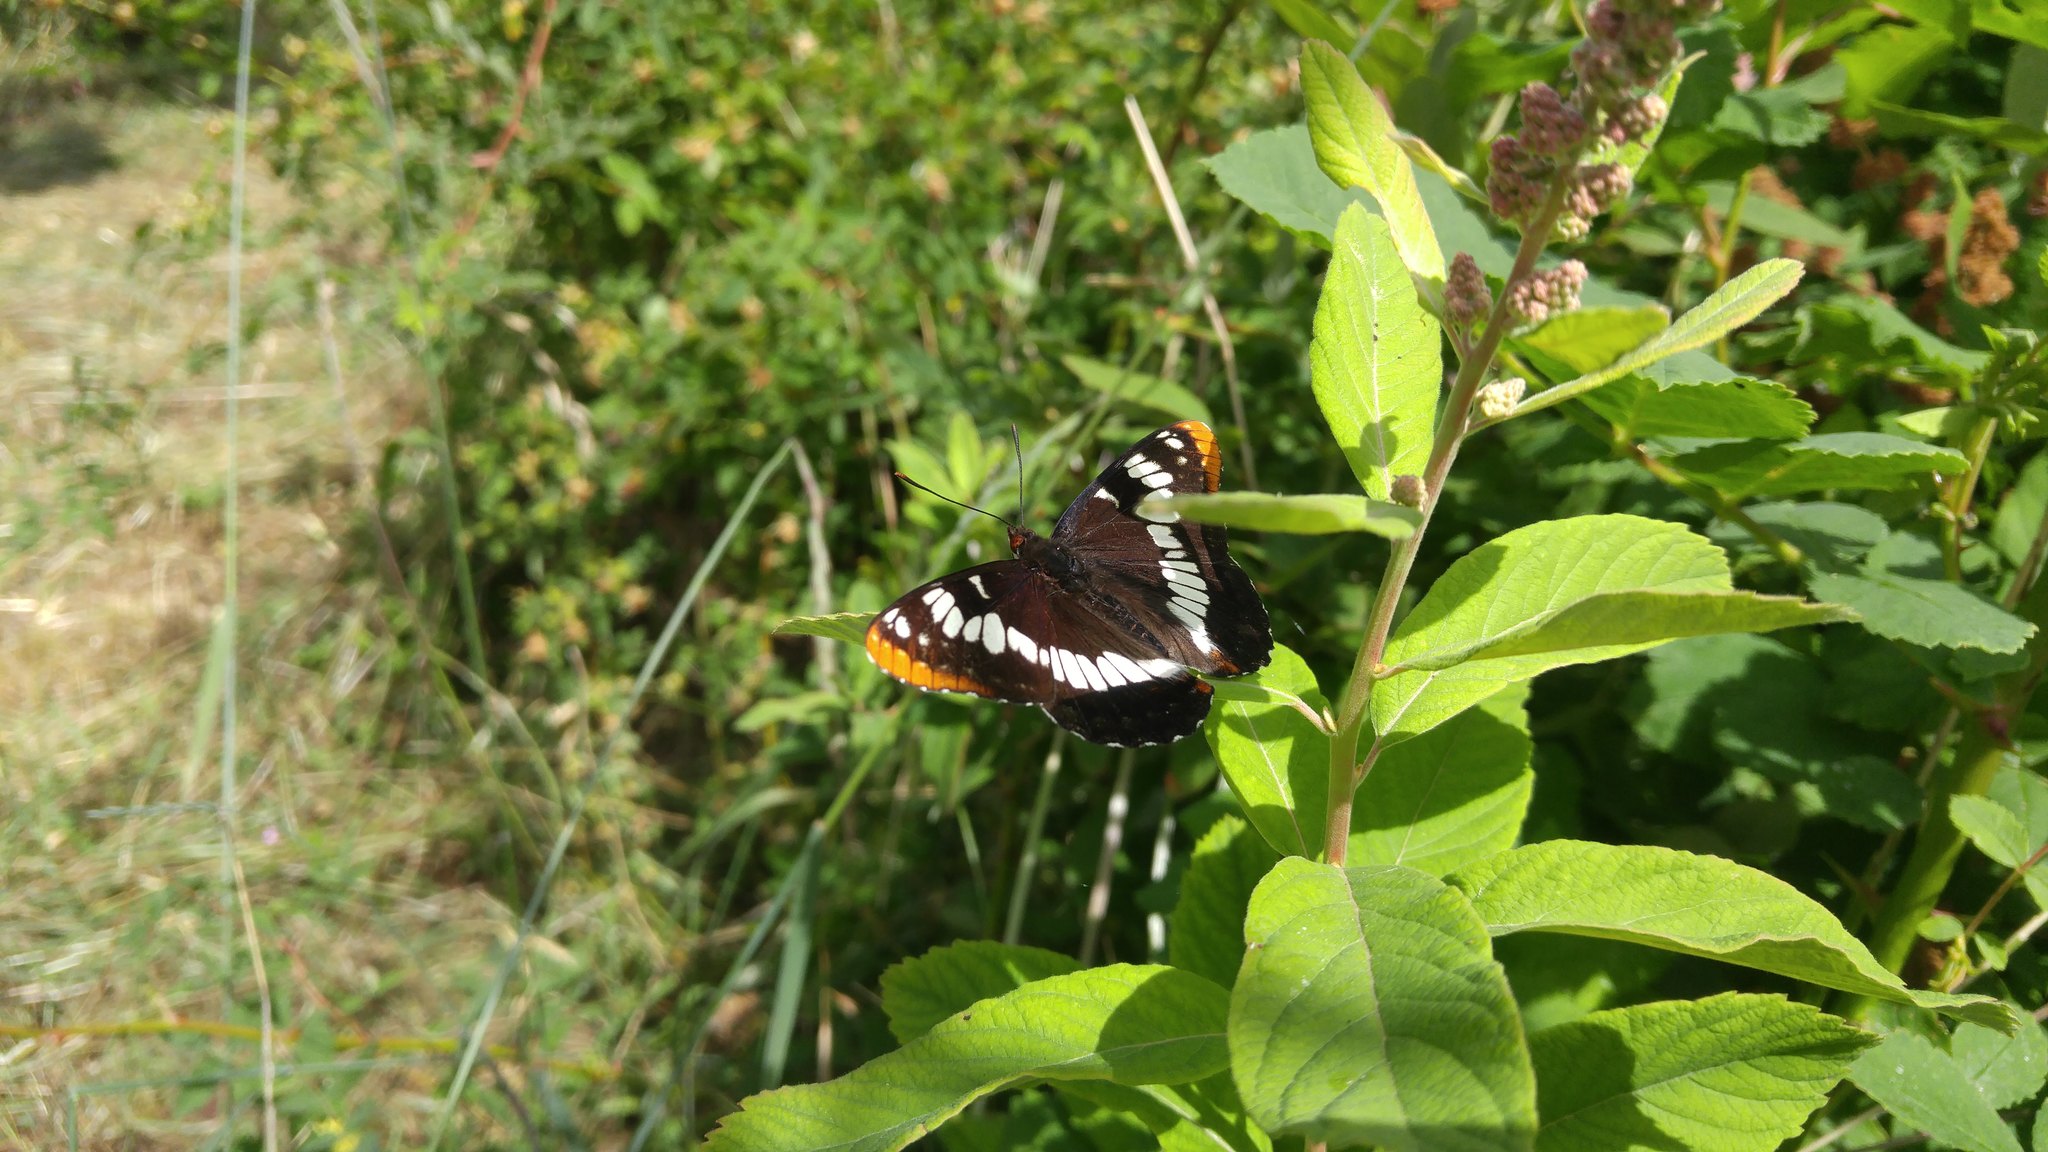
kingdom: Animalia
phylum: Arthropoda
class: Insecta
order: Lepidoptera
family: Nymphalidae
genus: Limenitis
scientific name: Limenitis lorquini
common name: Lorquin's admiral
